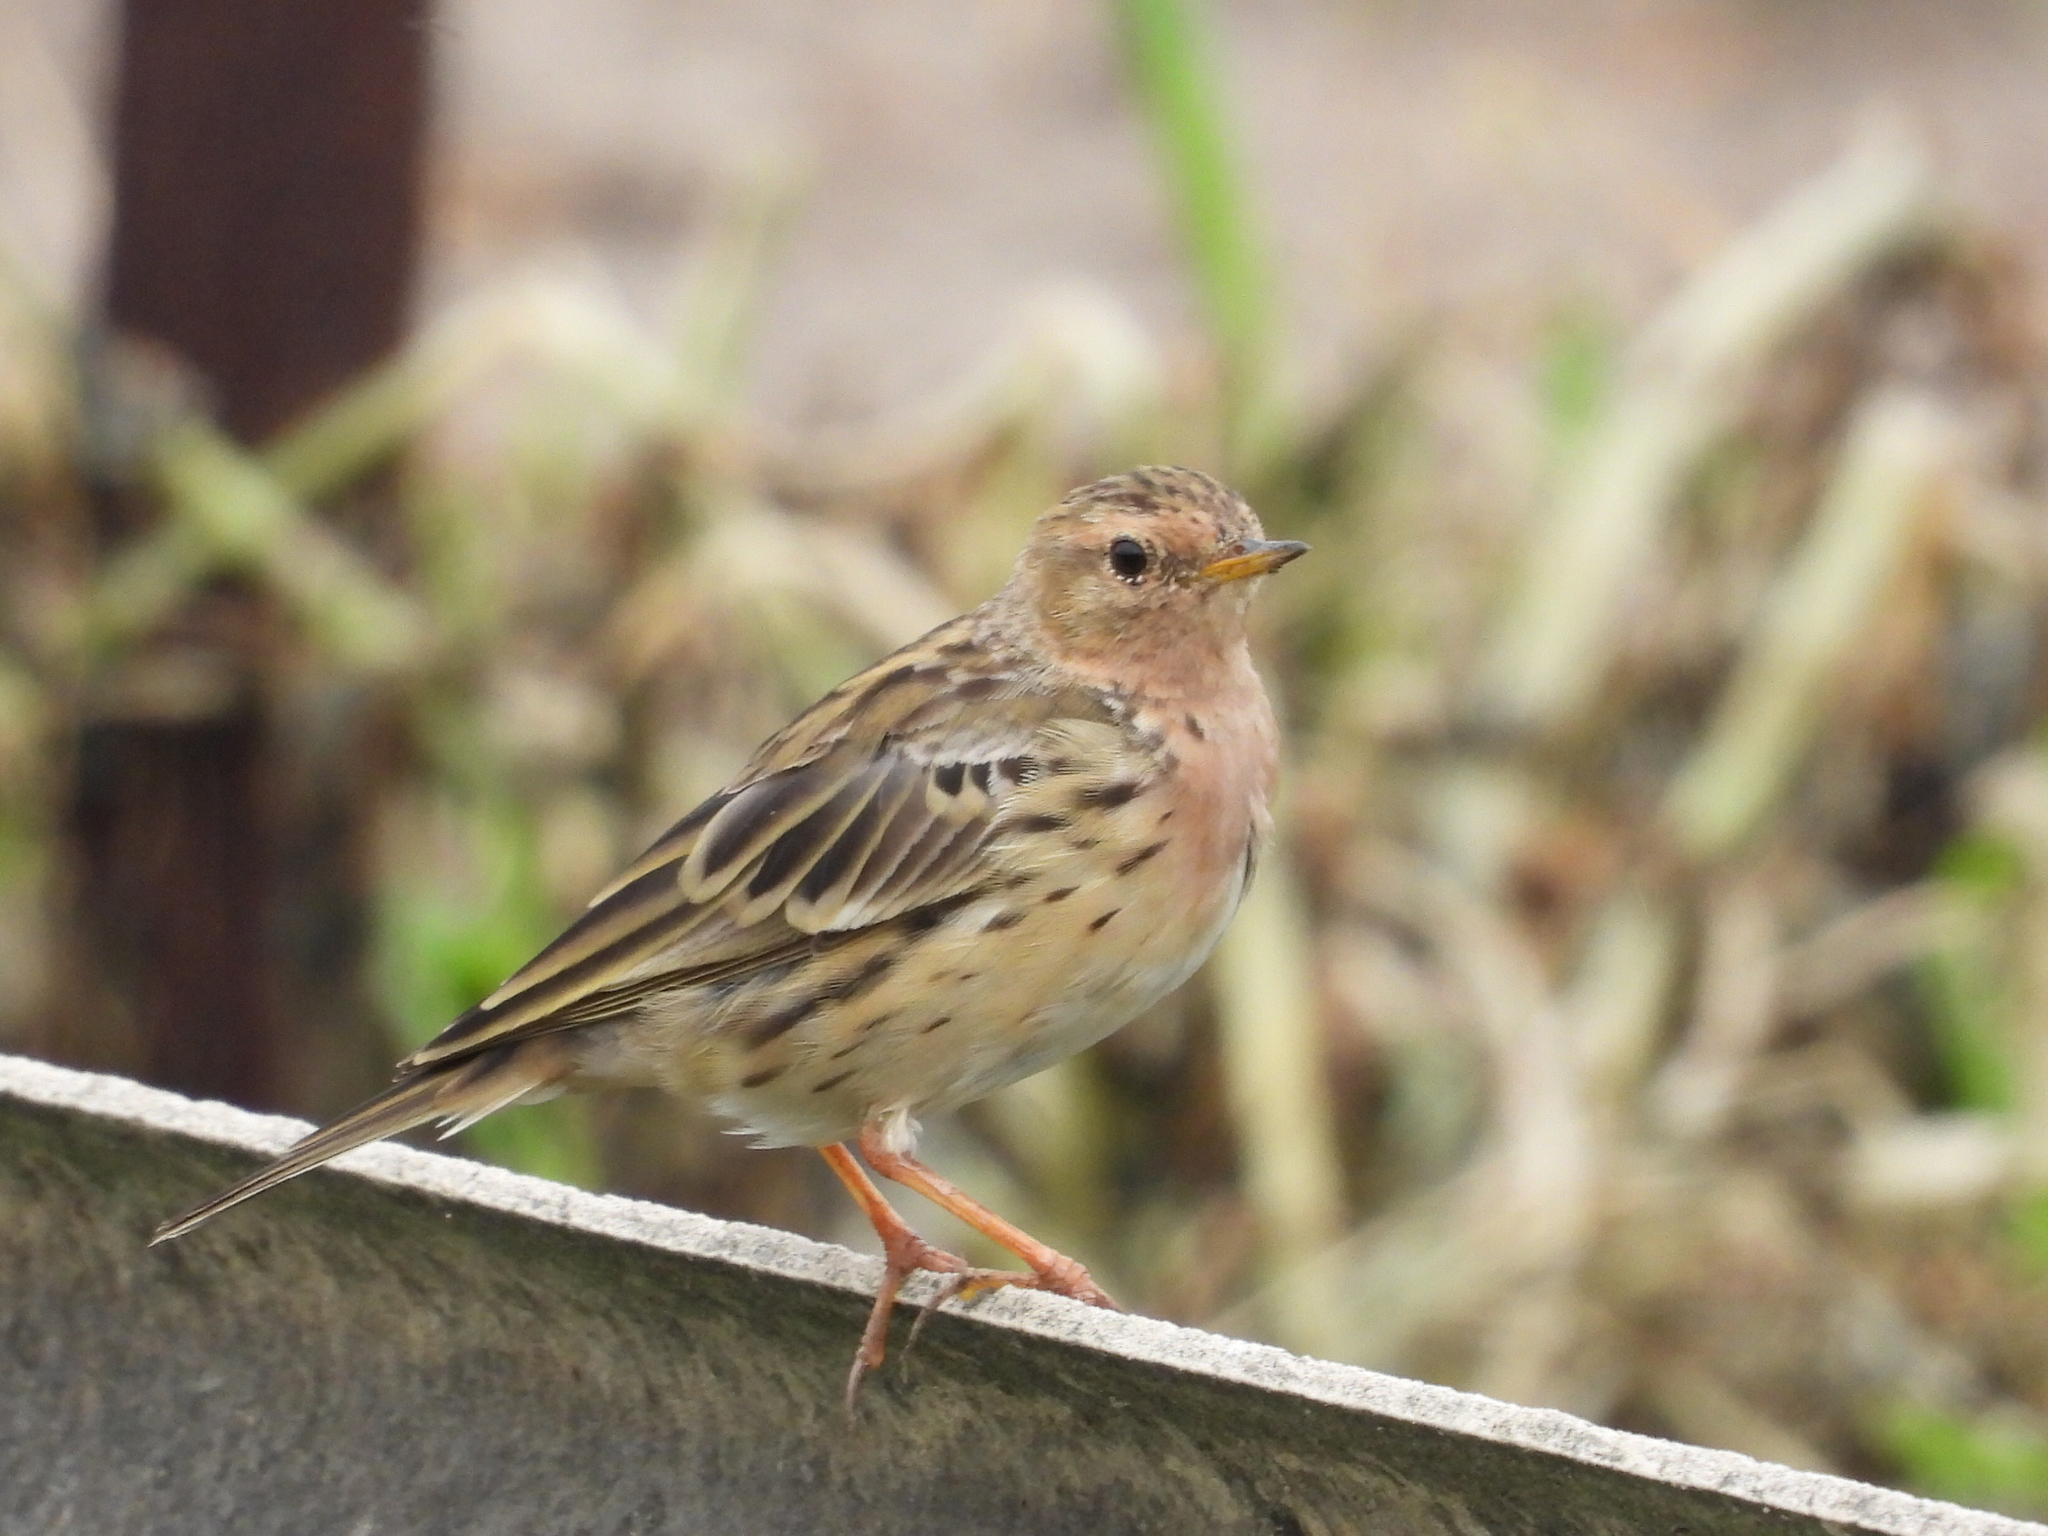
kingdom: Animalia
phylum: Chordata
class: Aves
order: Passeriformes
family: Motacillidae
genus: Anthus
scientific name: Anthus cervinus
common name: Red-throated pipit
